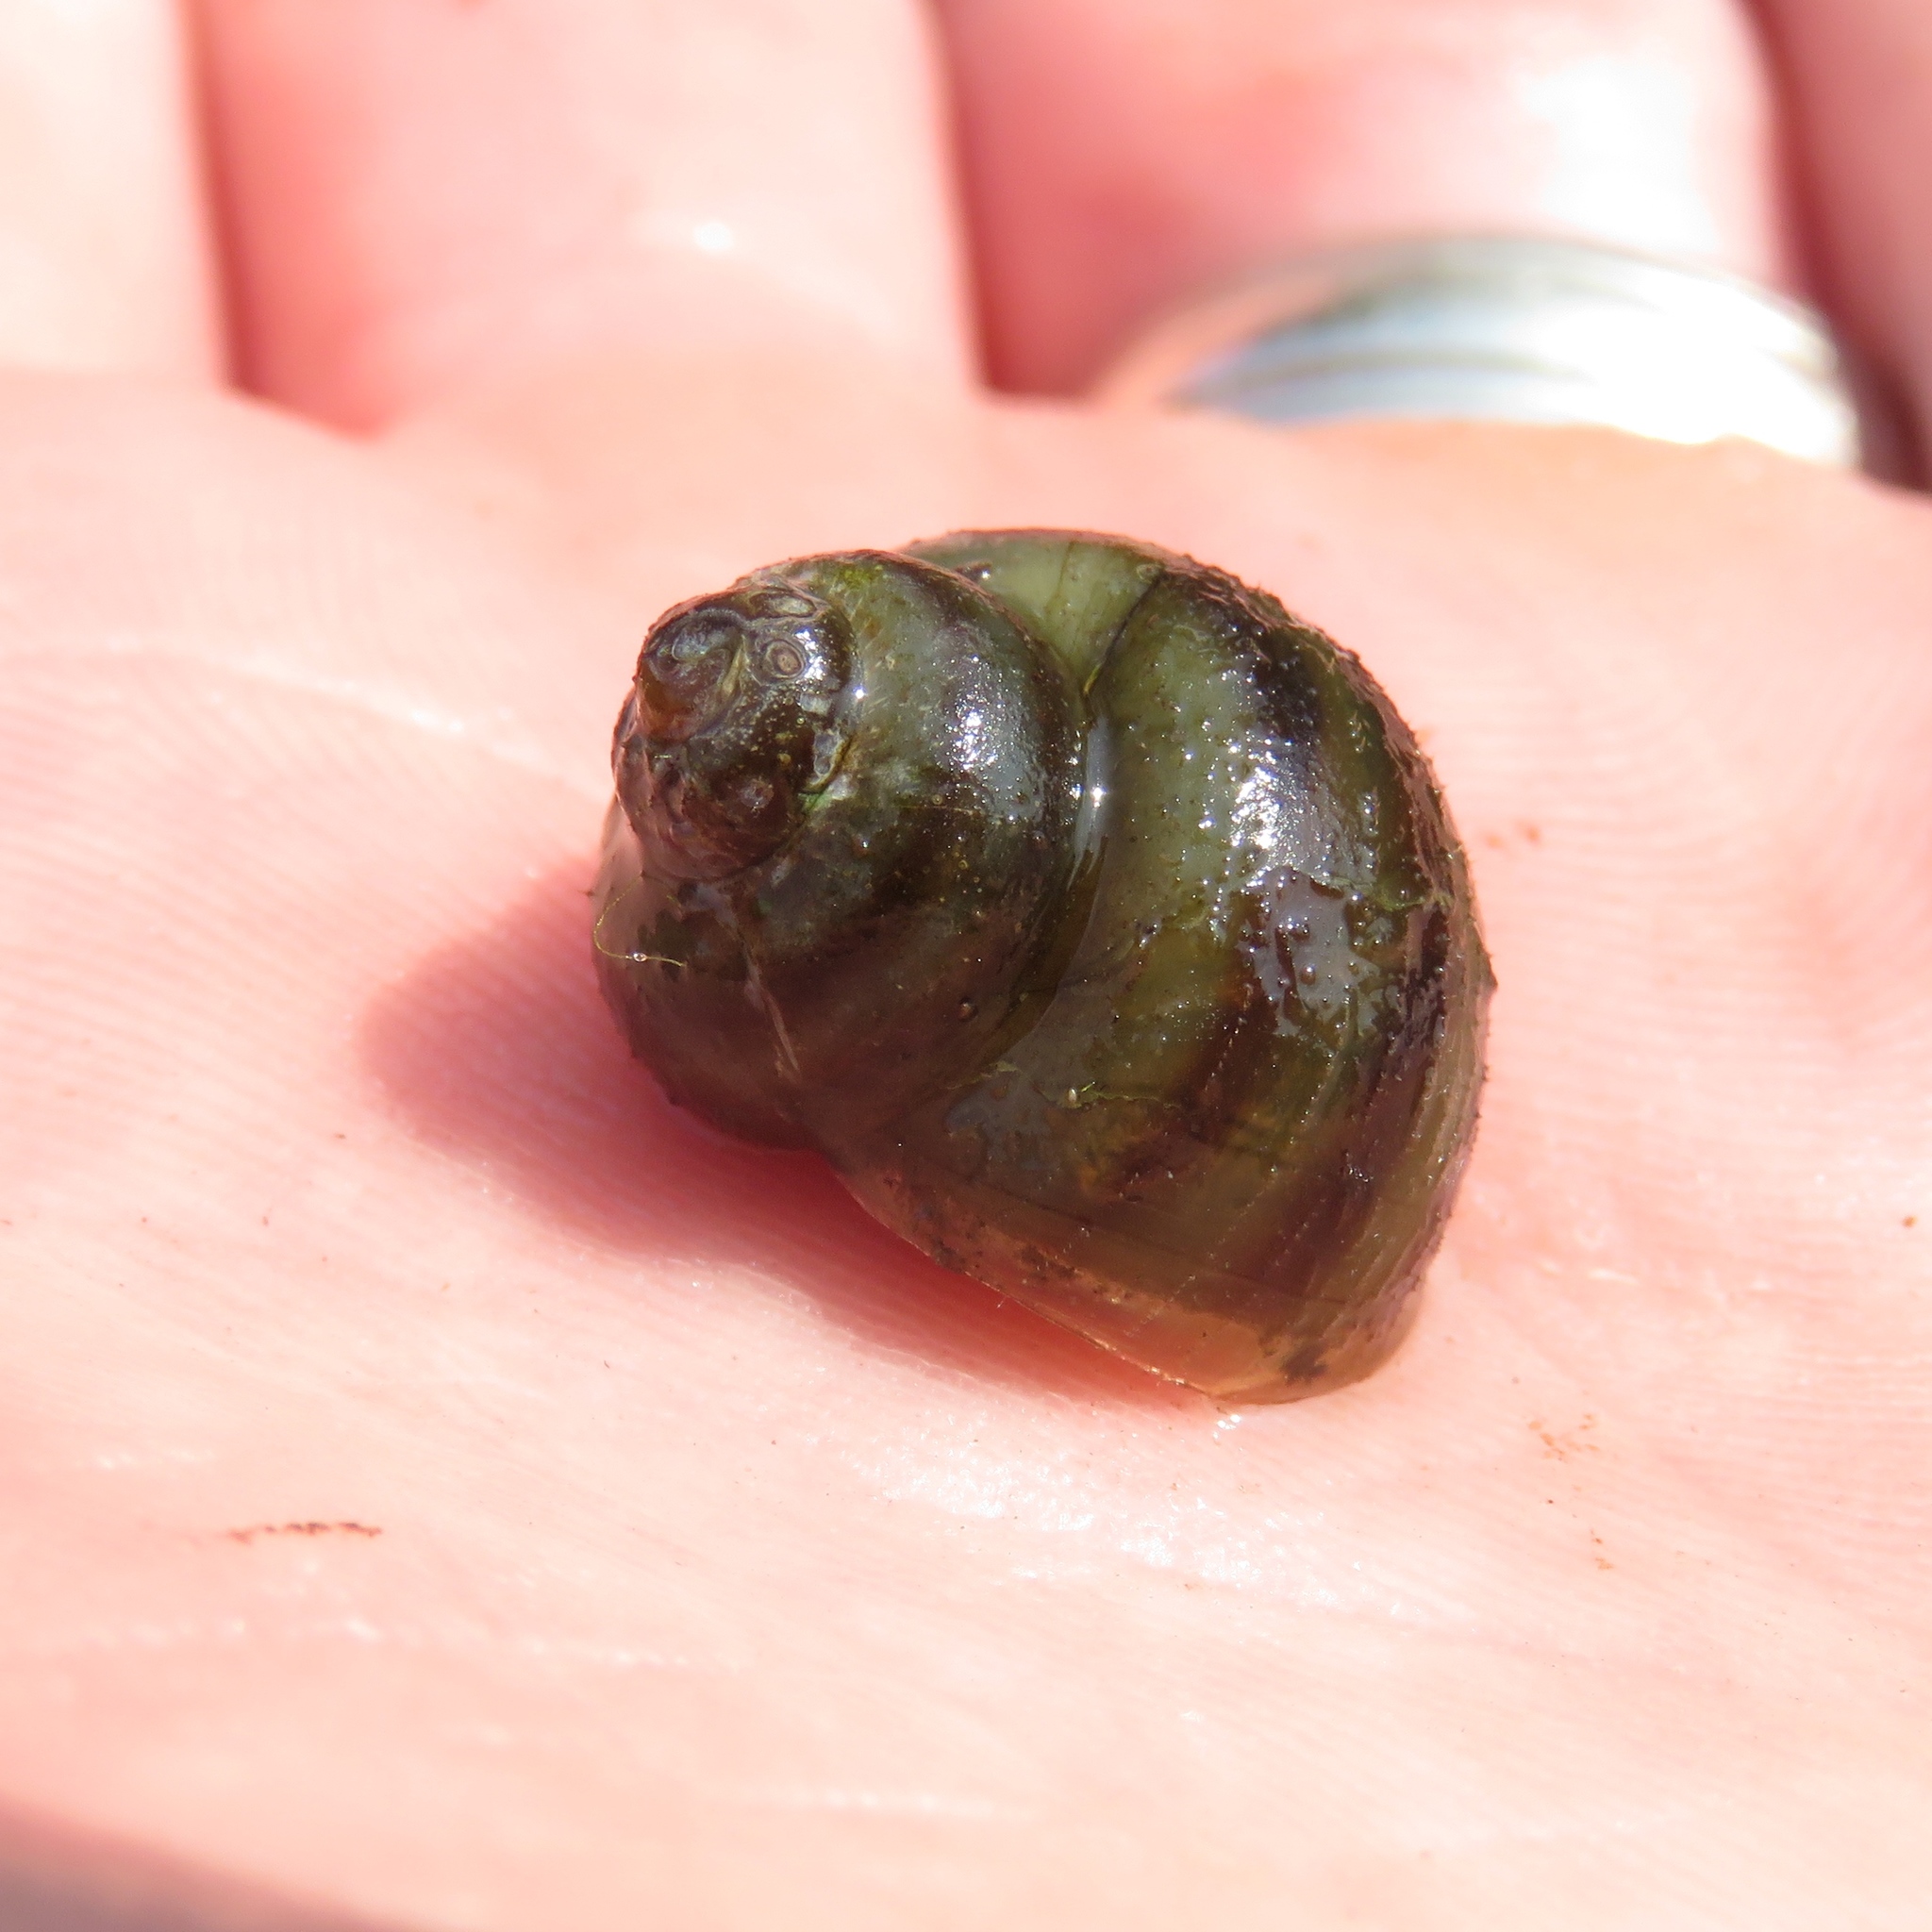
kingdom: Animalia
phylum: Mollusca
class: Gastropoda
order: Architaenioglossa
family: Viviparidae
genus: Callinina
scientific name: Callinina georgiana
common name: Banded mystery snail
